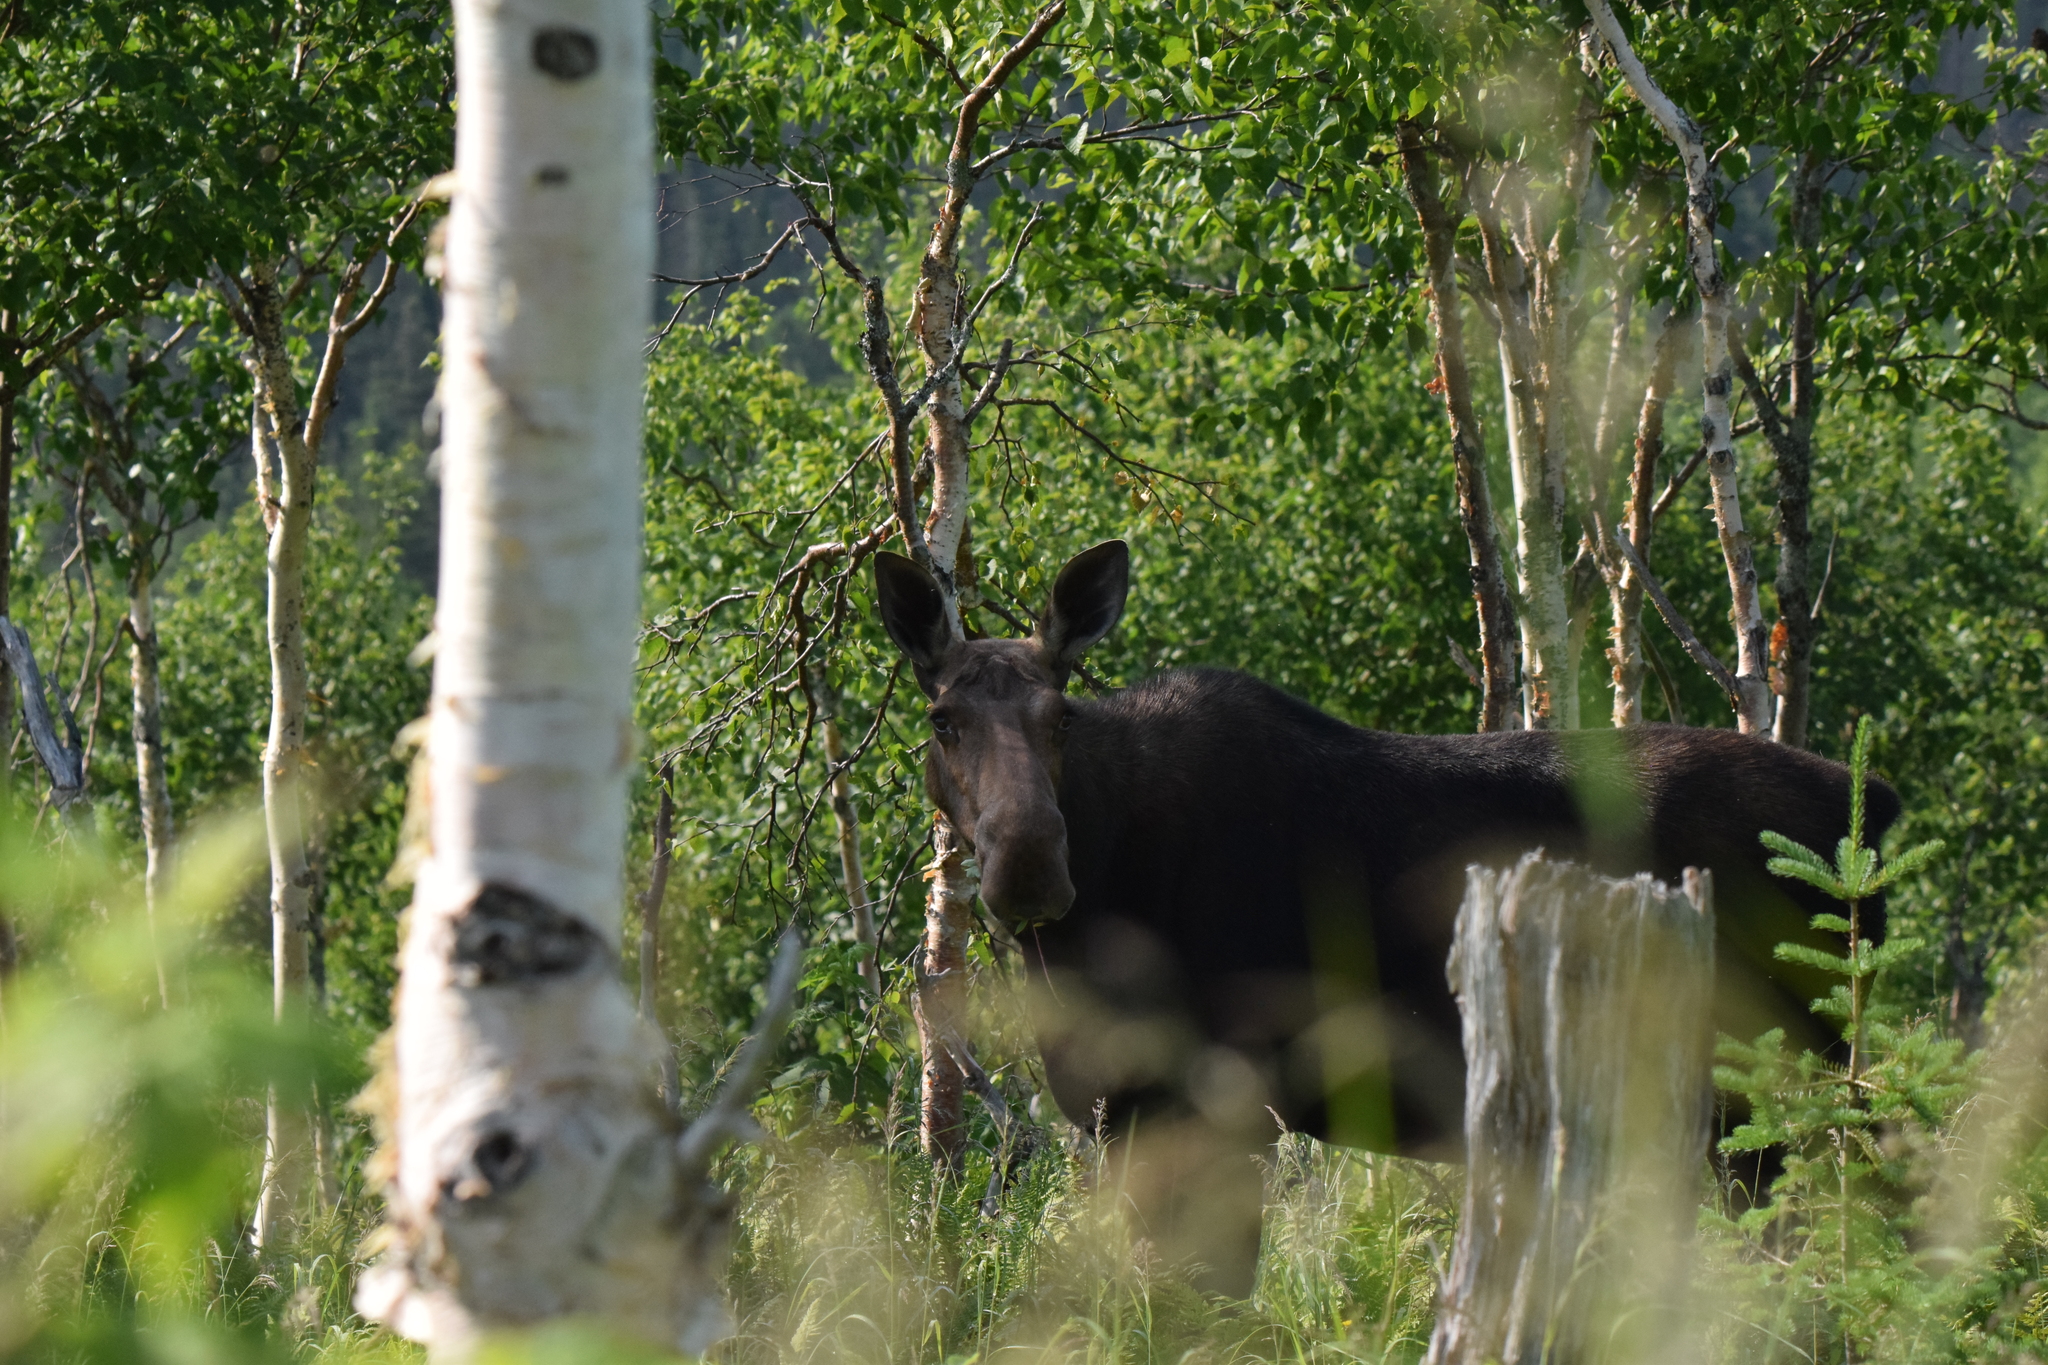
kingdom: Animalia
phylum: Chordata
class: Mammalia
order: Artiodactyla
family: Cervidae
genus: Alces
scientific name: Alces alces
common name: Moose
